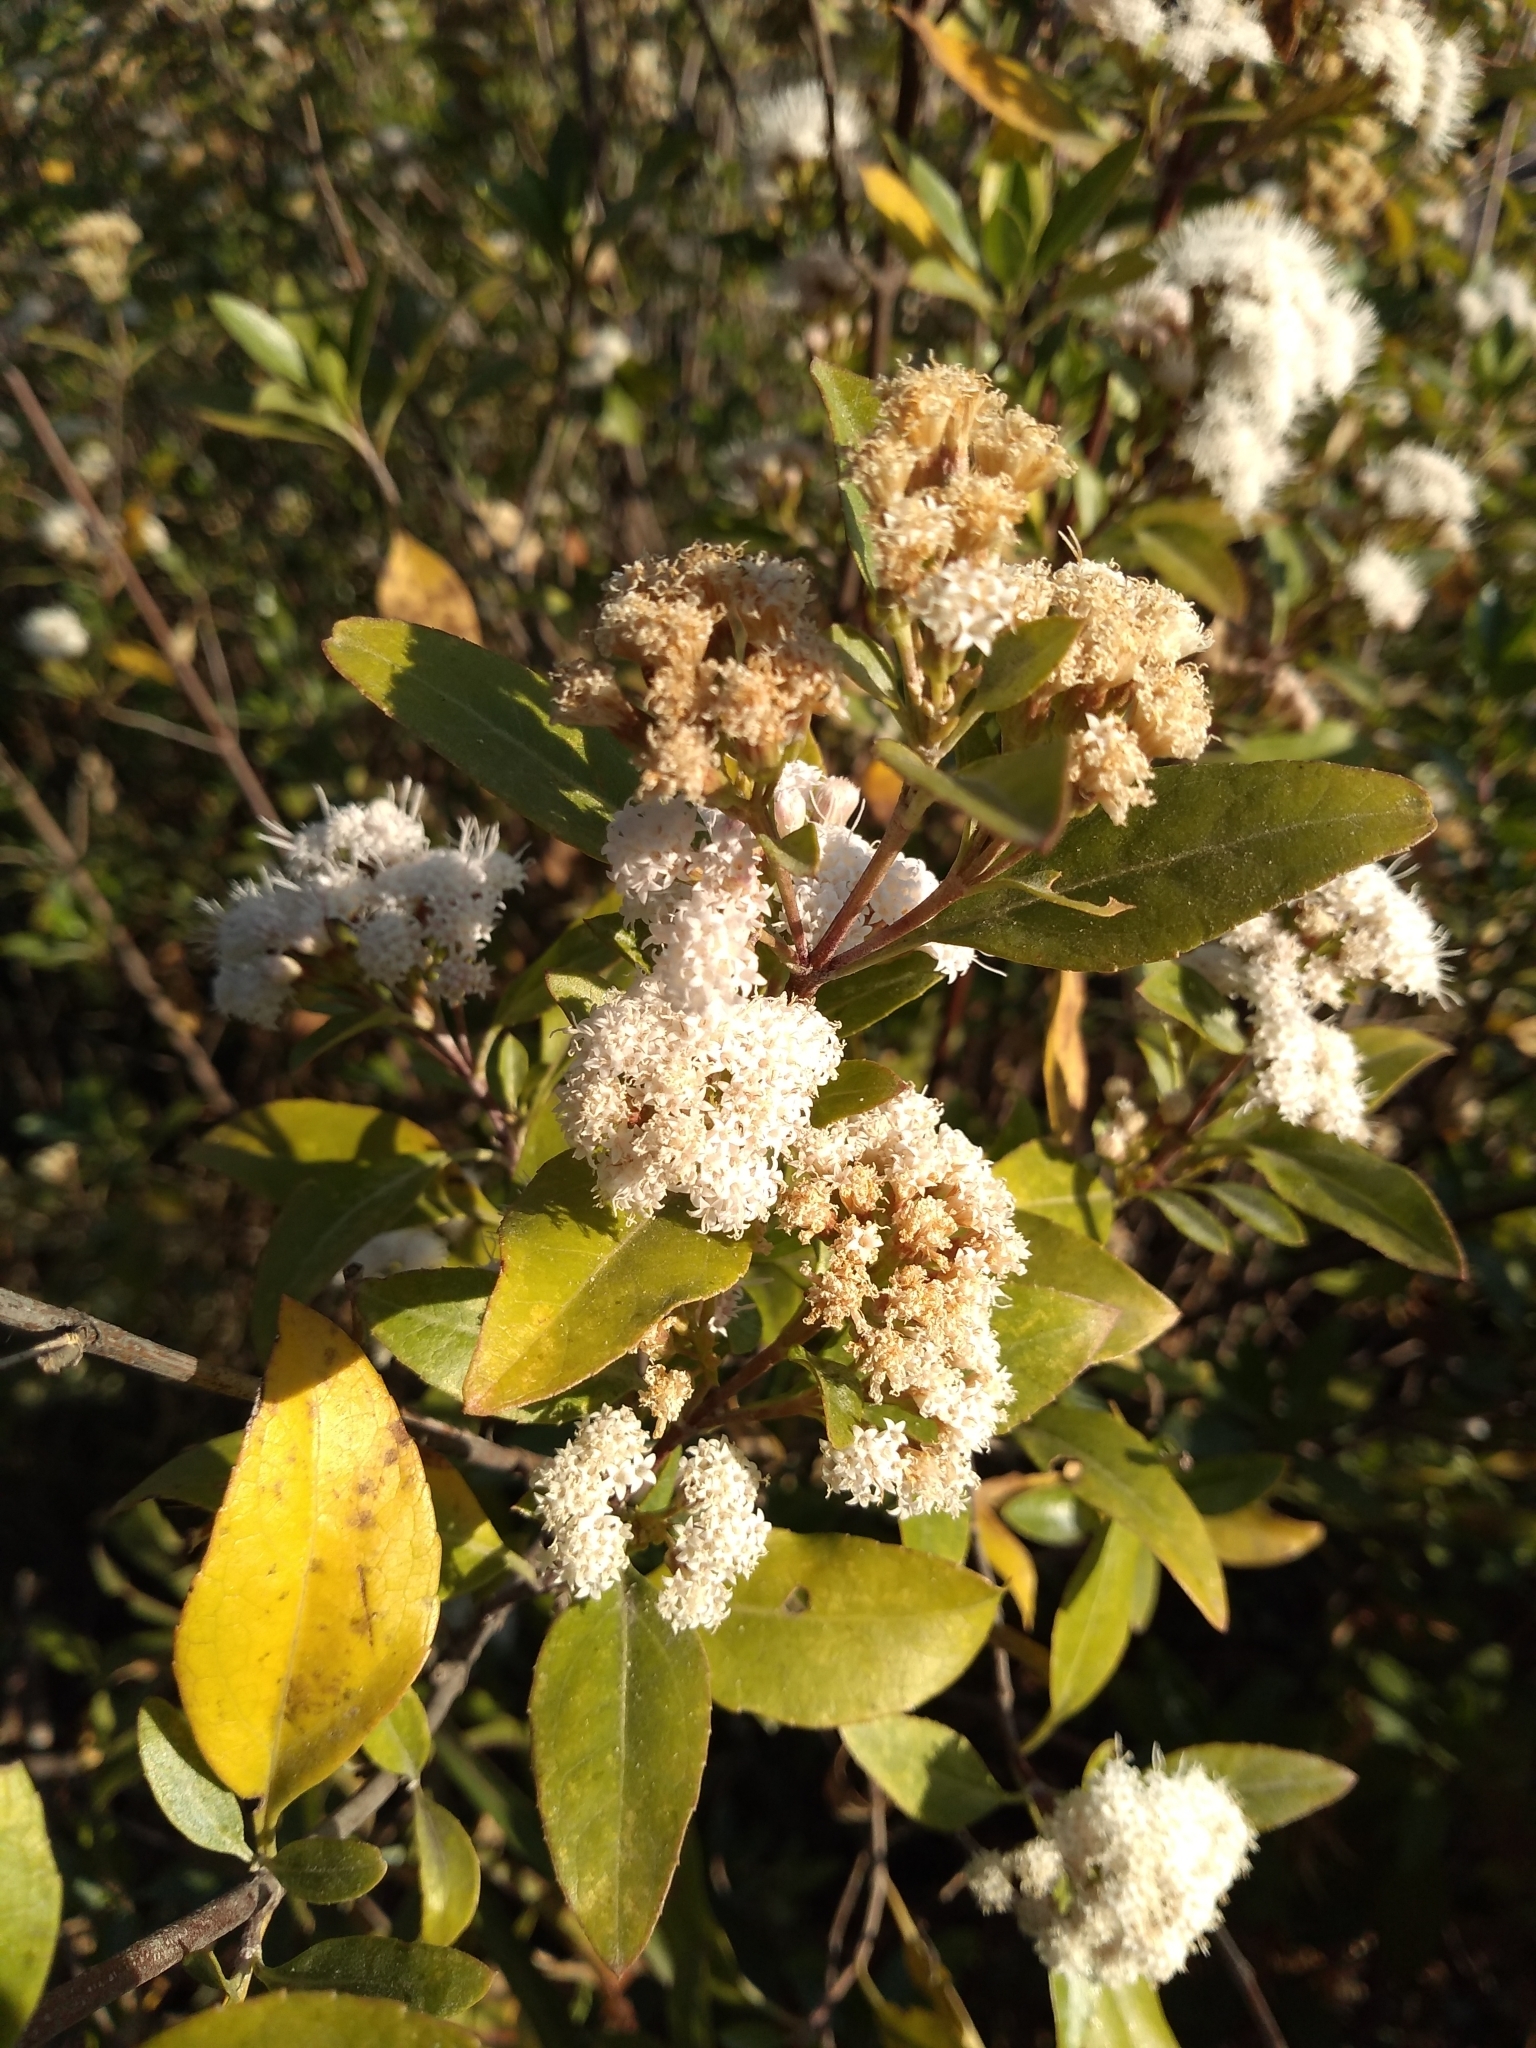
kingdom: Plantae
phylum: Tracheophyta
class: Magnoliopsida
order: Asterales
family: Asteraceae
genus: Ageratina
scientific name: Ageratina glabrata
